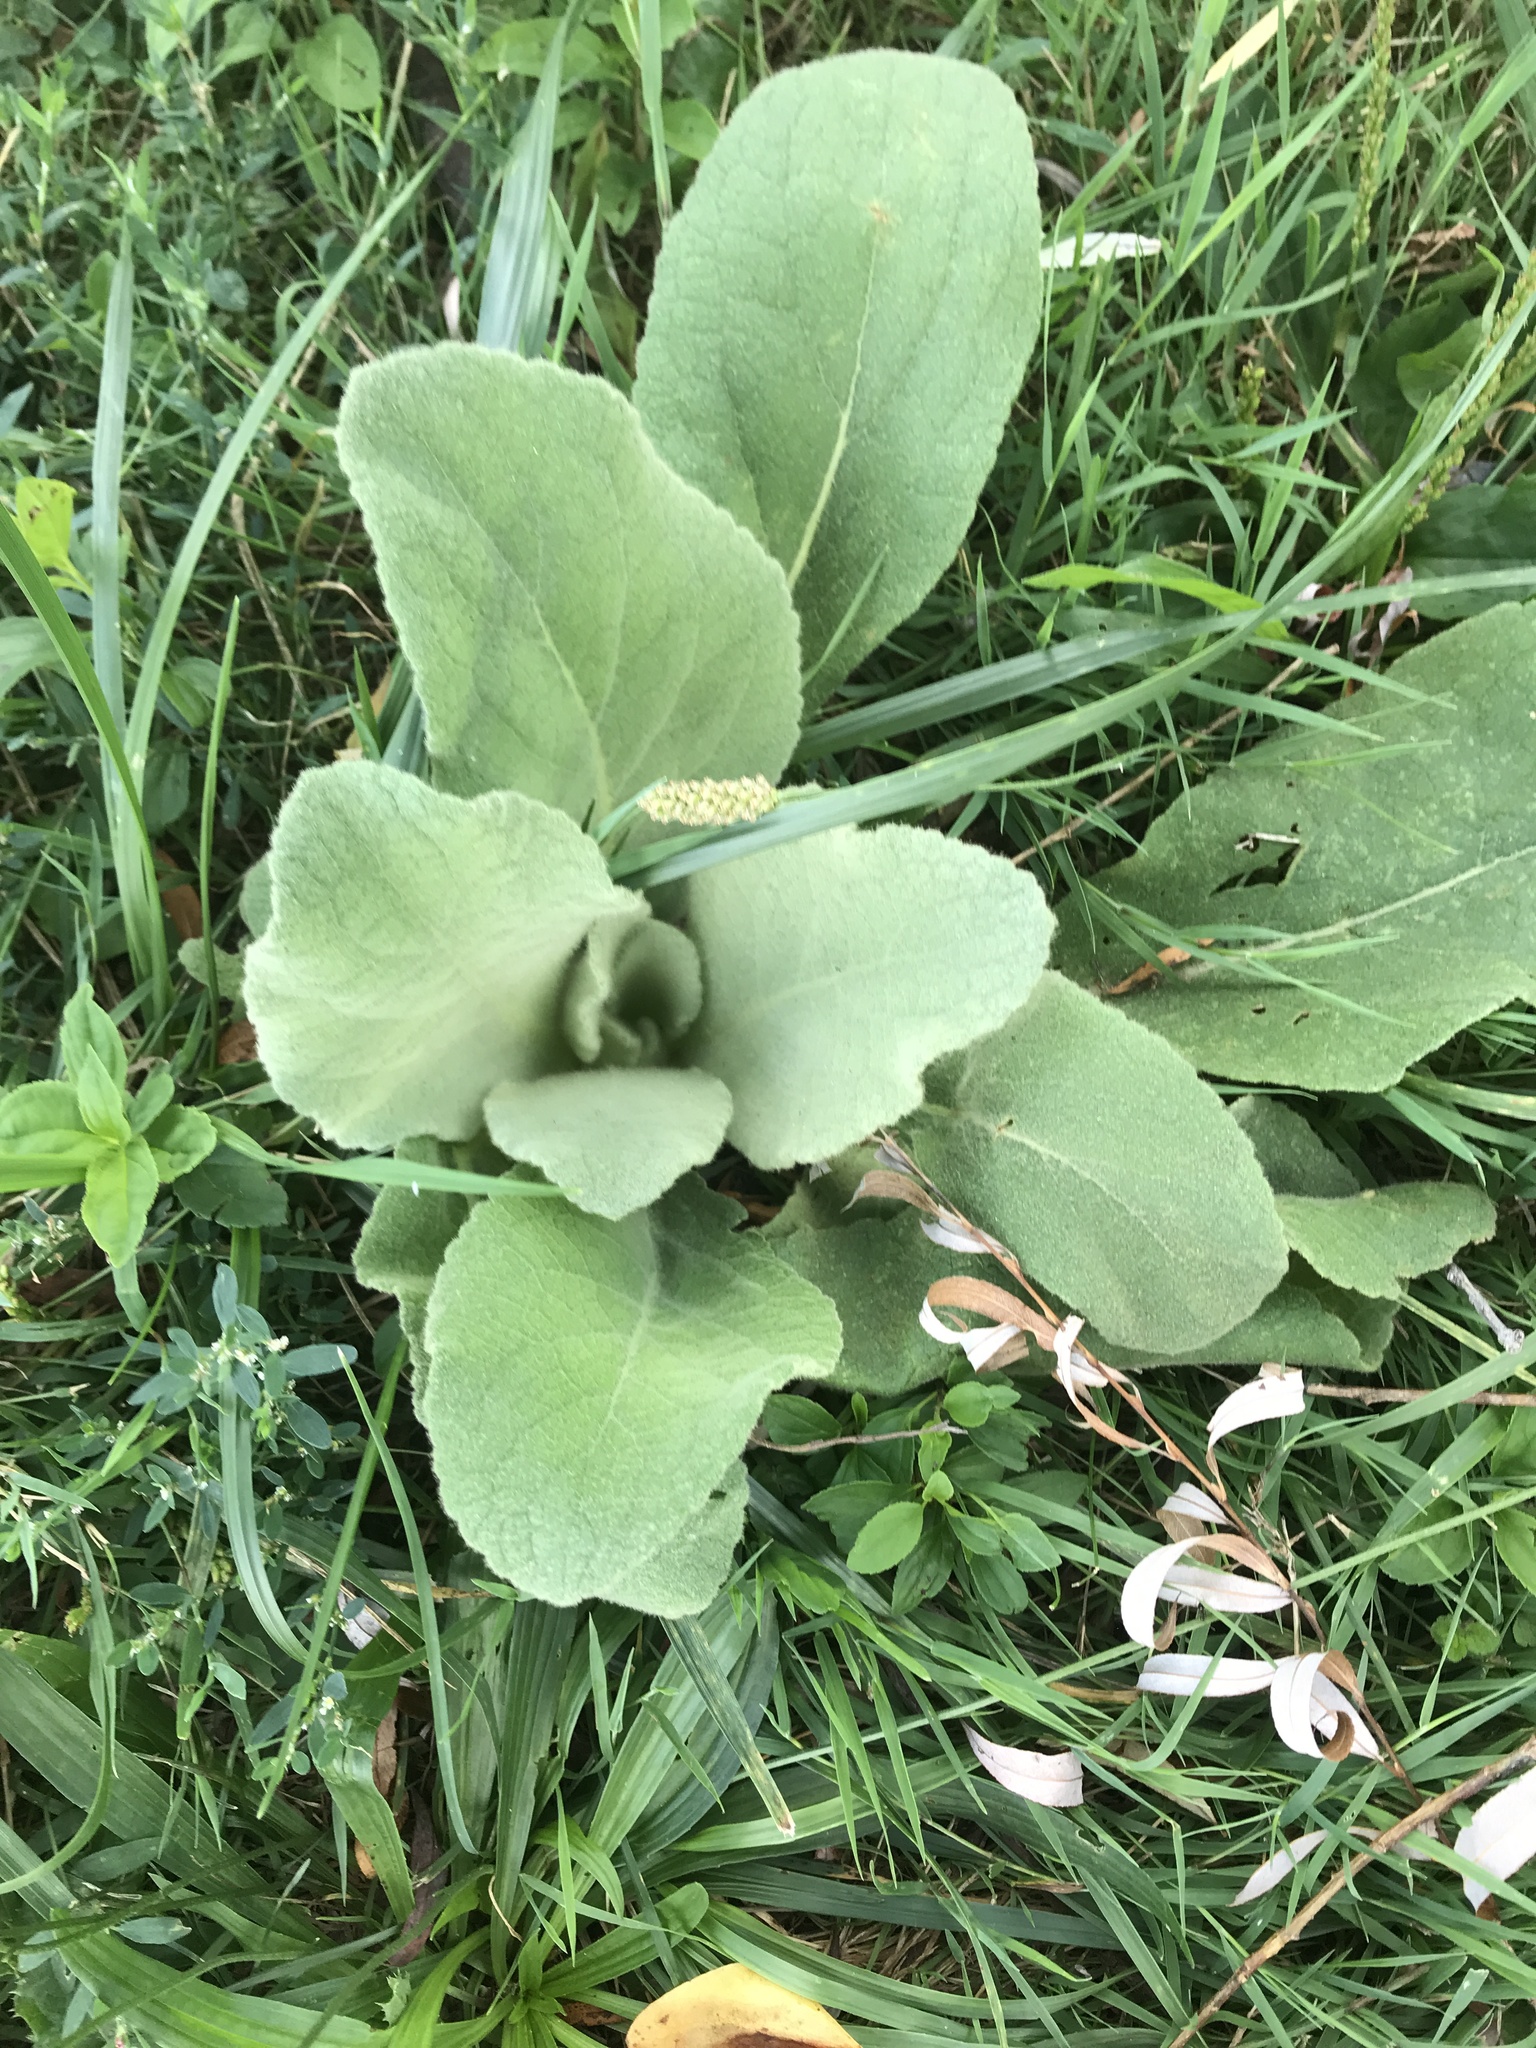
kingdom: Plantae
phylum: Tracheophyta
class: Magnoliopsida
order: Lamiales
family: Scrophulariaceae
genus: Verbascum
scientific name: Verbascum thapsus
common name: Common mullein
